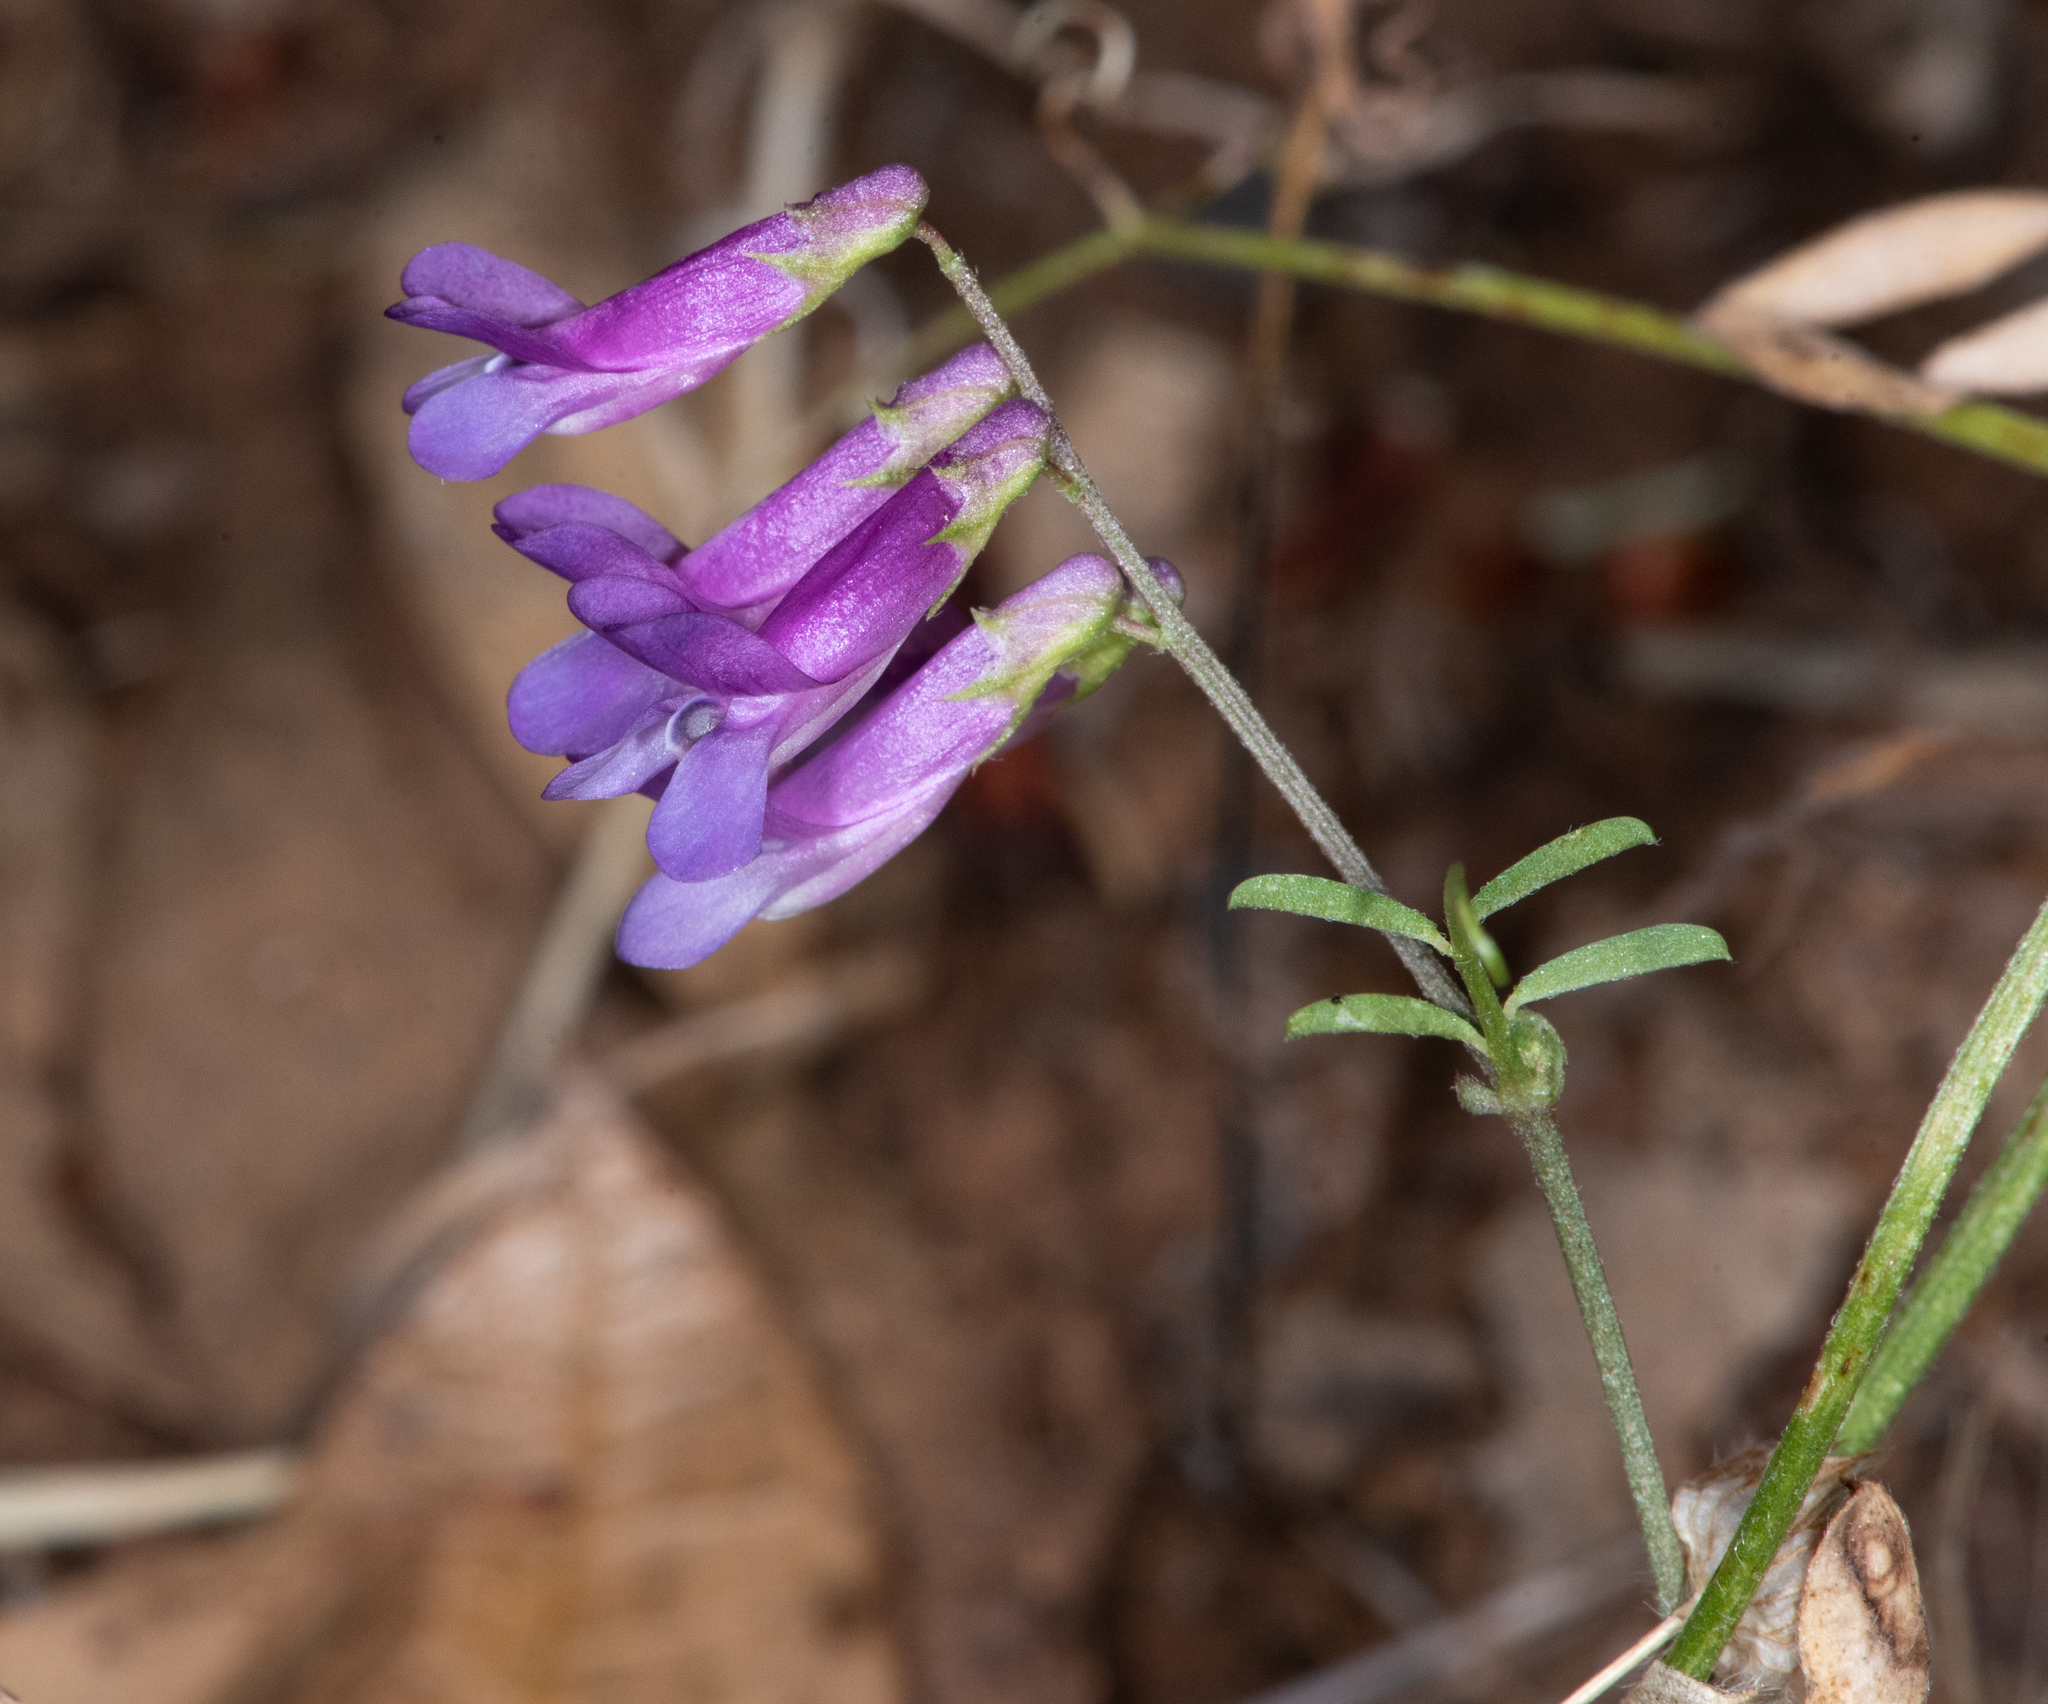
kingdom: Plantae
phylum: Tracheophyta
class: Magnoliopsida
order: Fabales
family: Fabaceae
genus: Vicia
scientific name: Vicia villosa
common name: Fodder vetch
